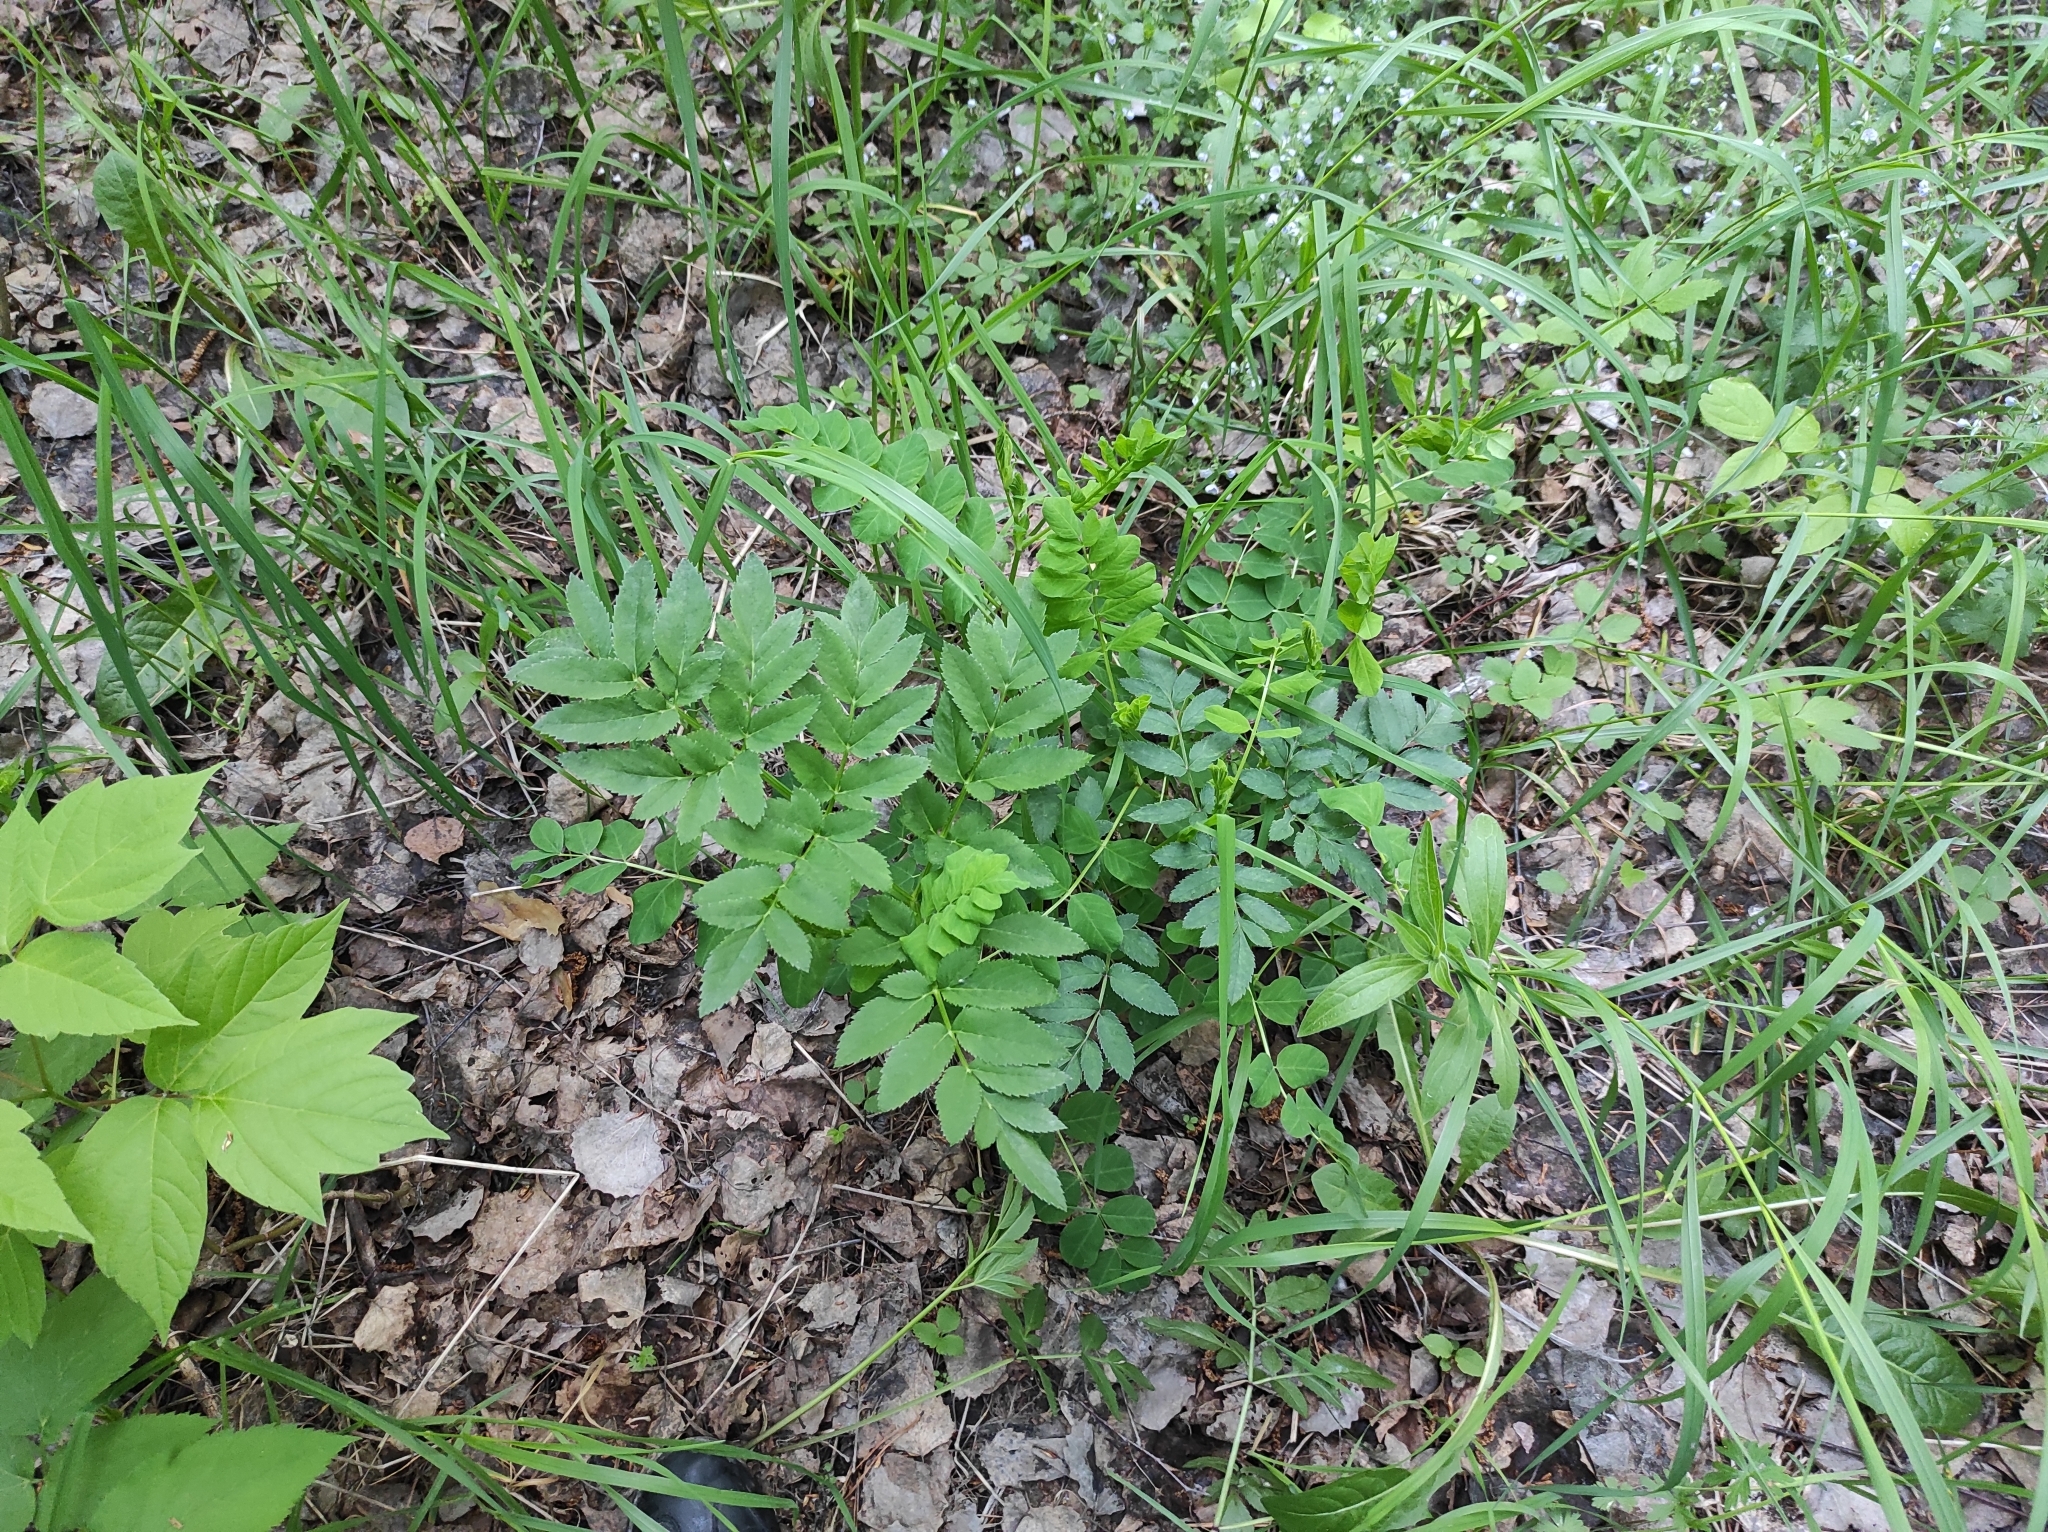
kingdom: Plantae
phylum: Tracheophyta
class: Magnoliopsida
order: Apiales
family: Apiaceae
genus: Angelica
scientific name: Angelica sylvestris
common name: Wild angelica
